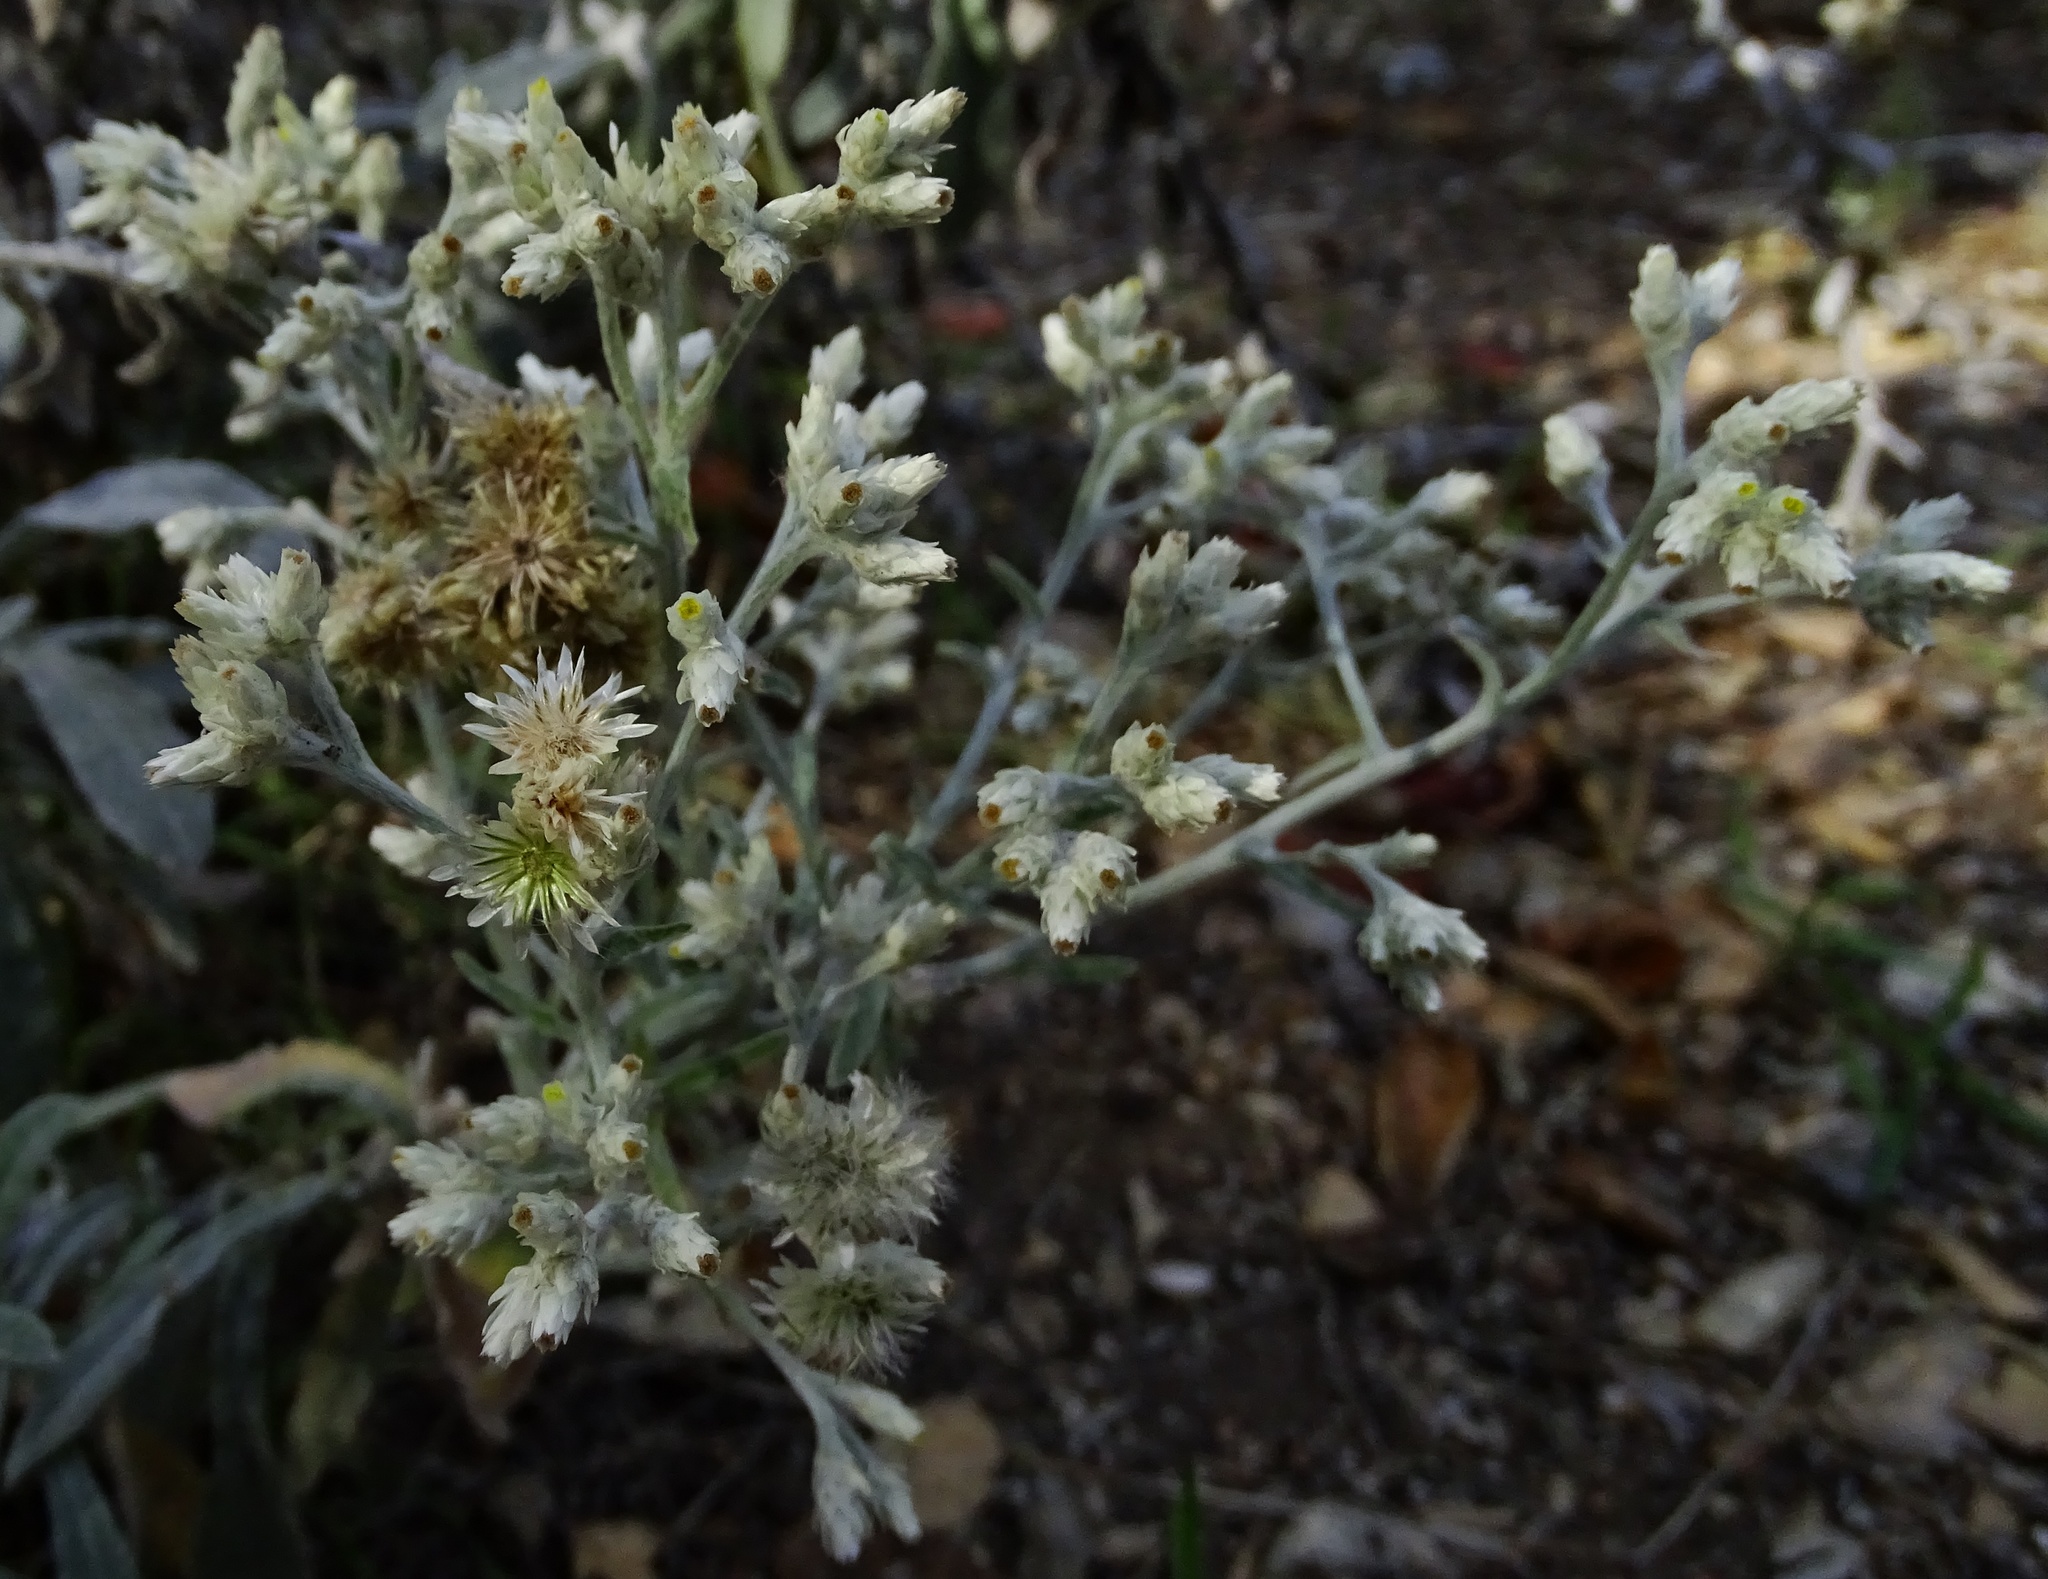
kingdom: Plantae
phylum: Tracheophyta
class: Magnoliopsida
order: Asterales
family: Asteraceae
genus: Pseudognaphalium
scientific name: Pseudognaphalium microcephalum
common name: San diego rabbit-tobacco
